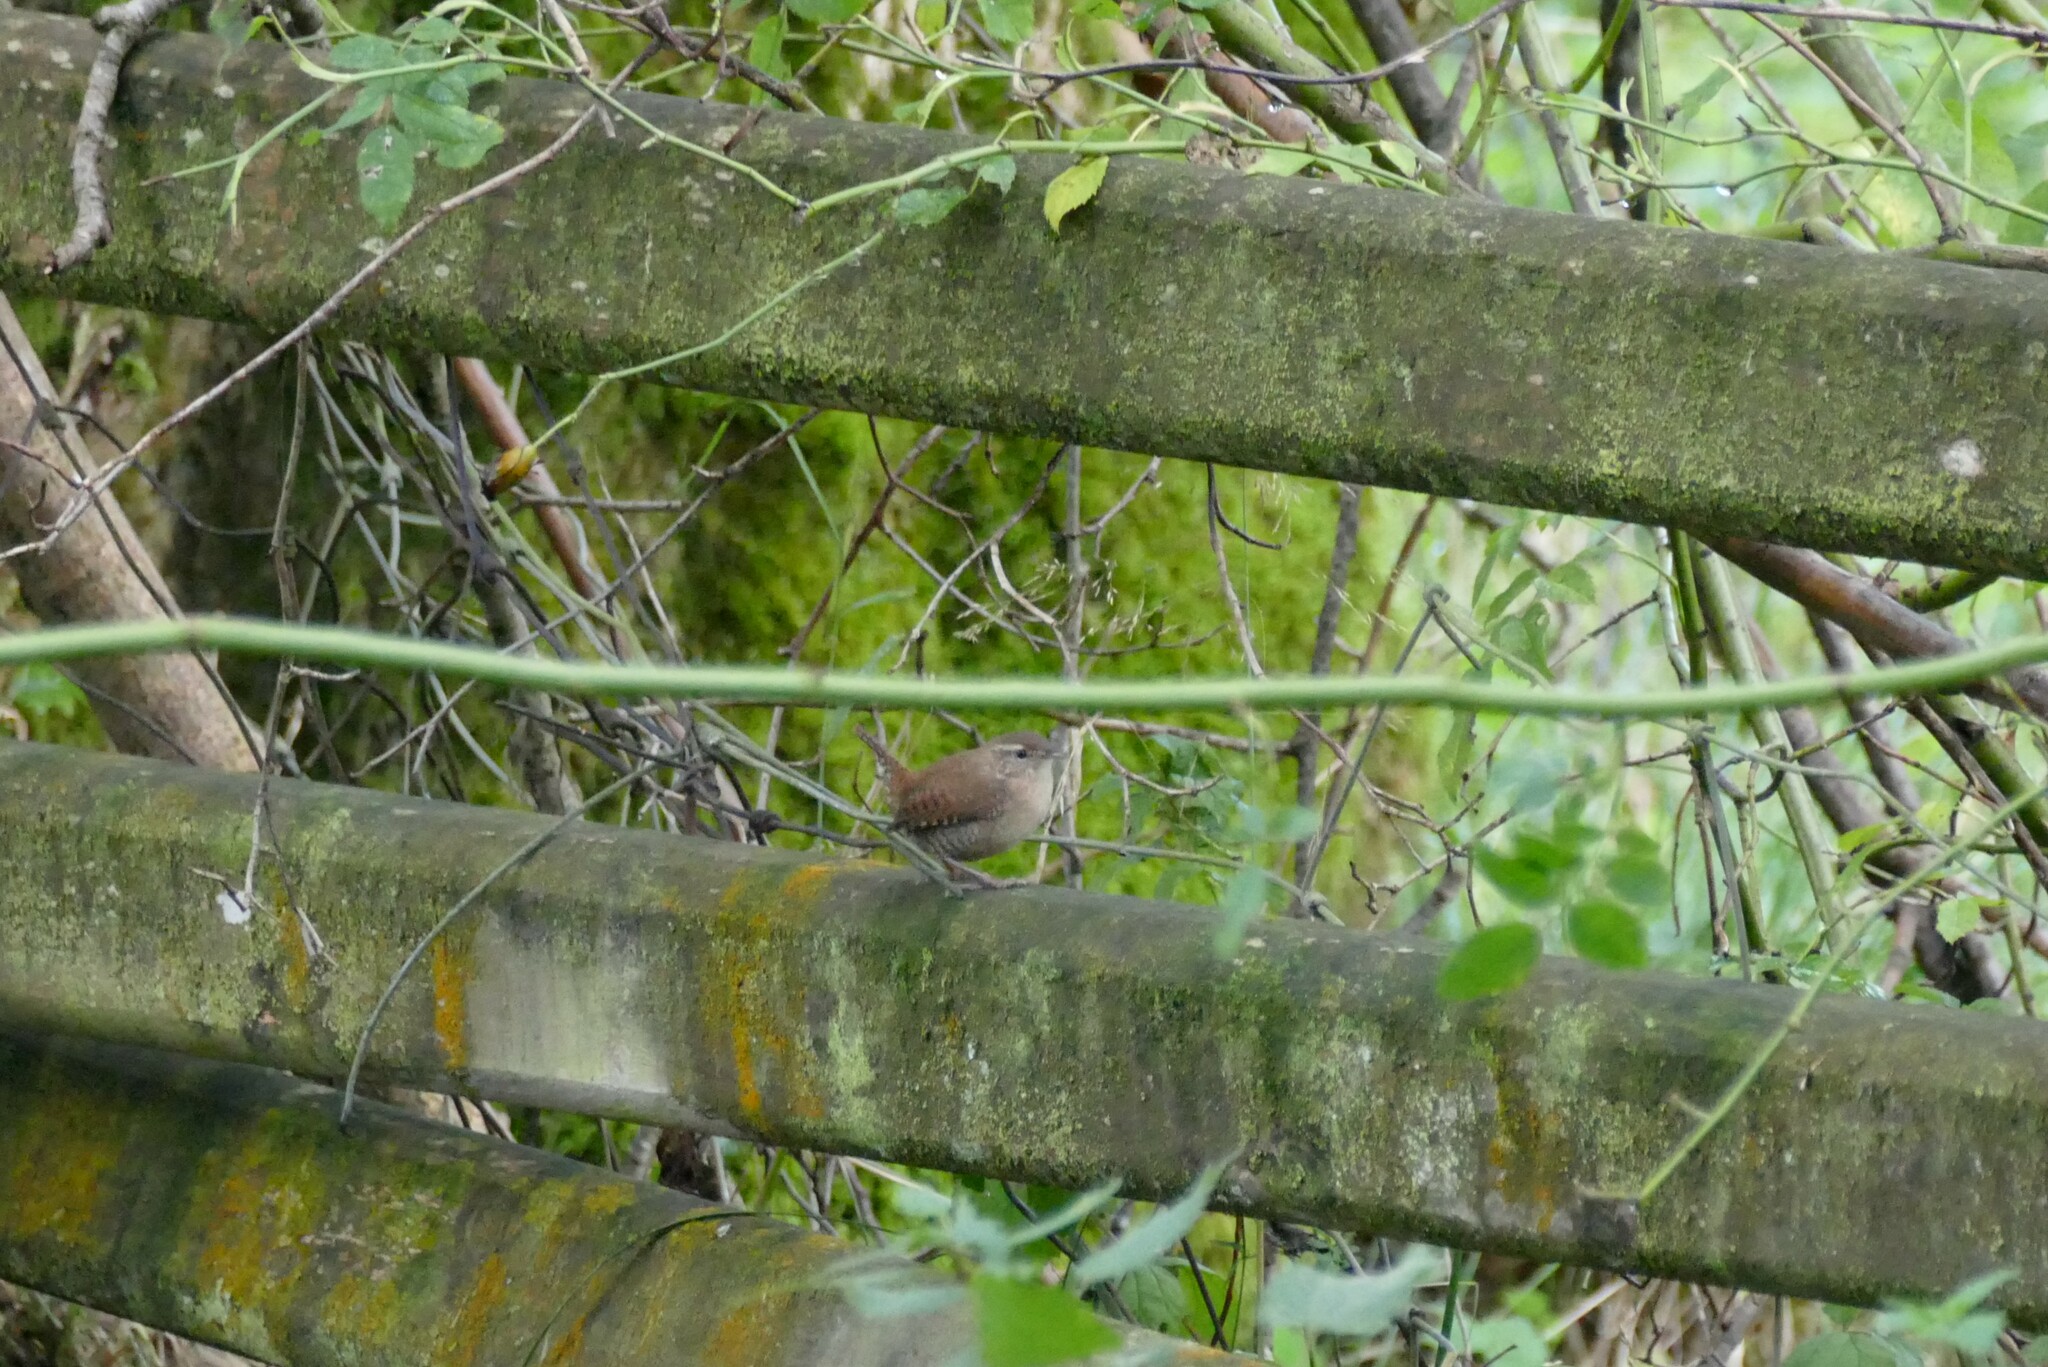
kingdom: Animalia
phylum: Chordata
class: Aves
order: Passeriformes
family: Troglodytidae
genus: Troglodytes
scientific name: Troglodytes troglodytes
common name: Eurasian wren
